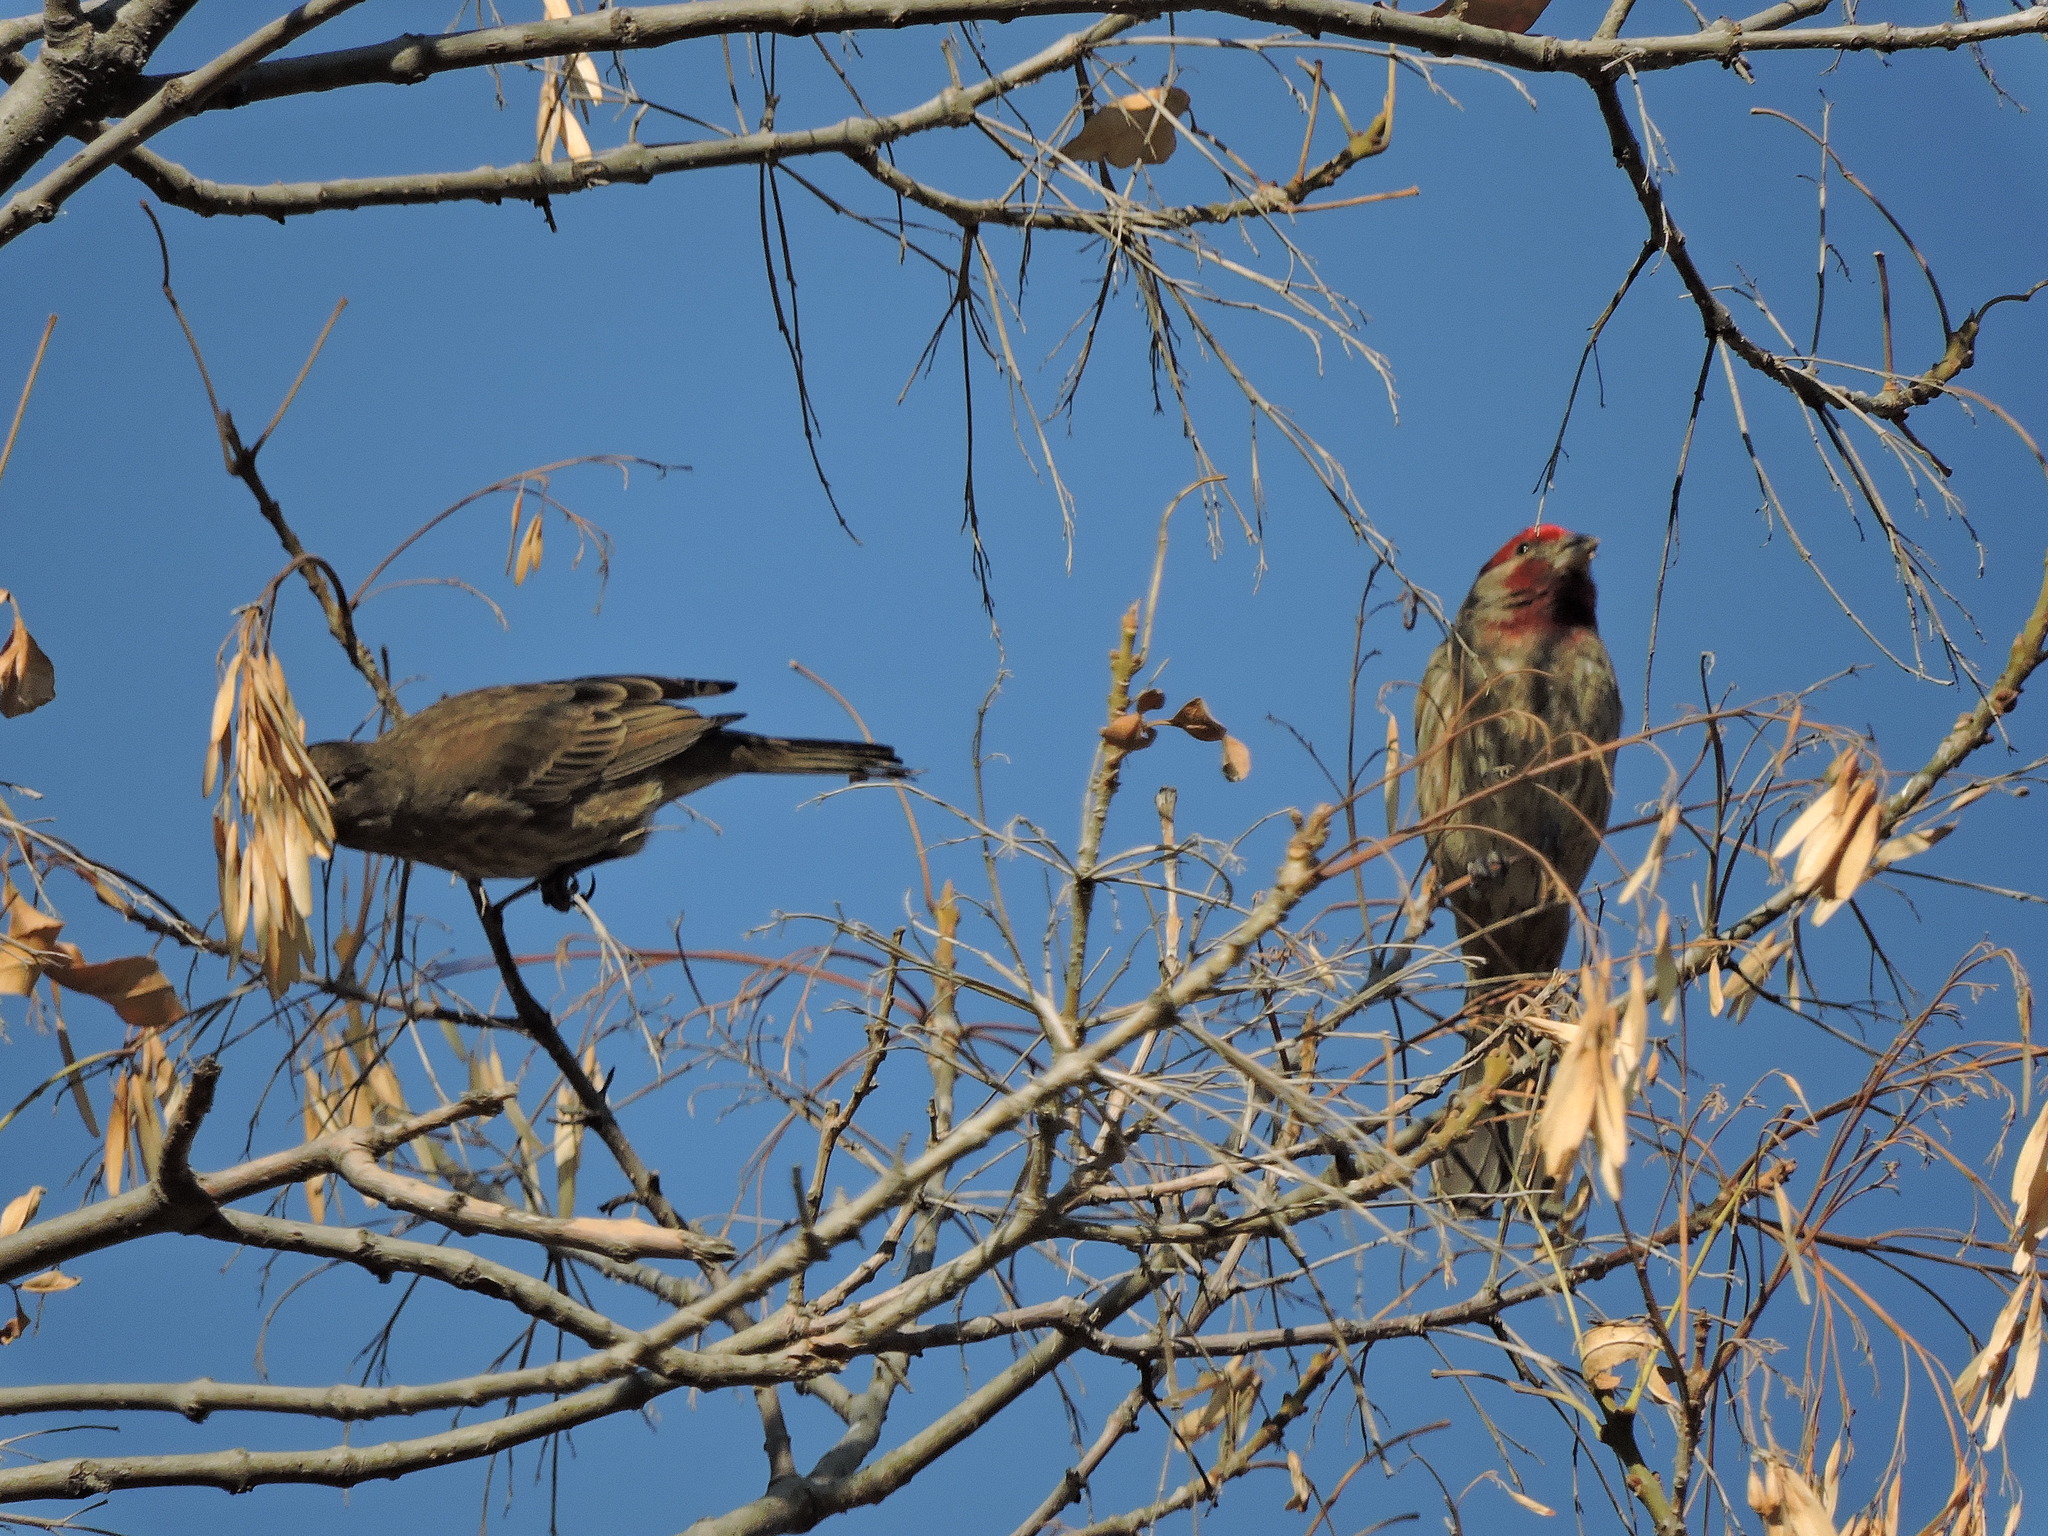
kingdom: Animalia
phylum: Chordata
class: Aves
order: Passeriformes
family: Fringillidae
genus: Haemorhous
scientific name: Haemorhous mexicanus
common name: House finch
